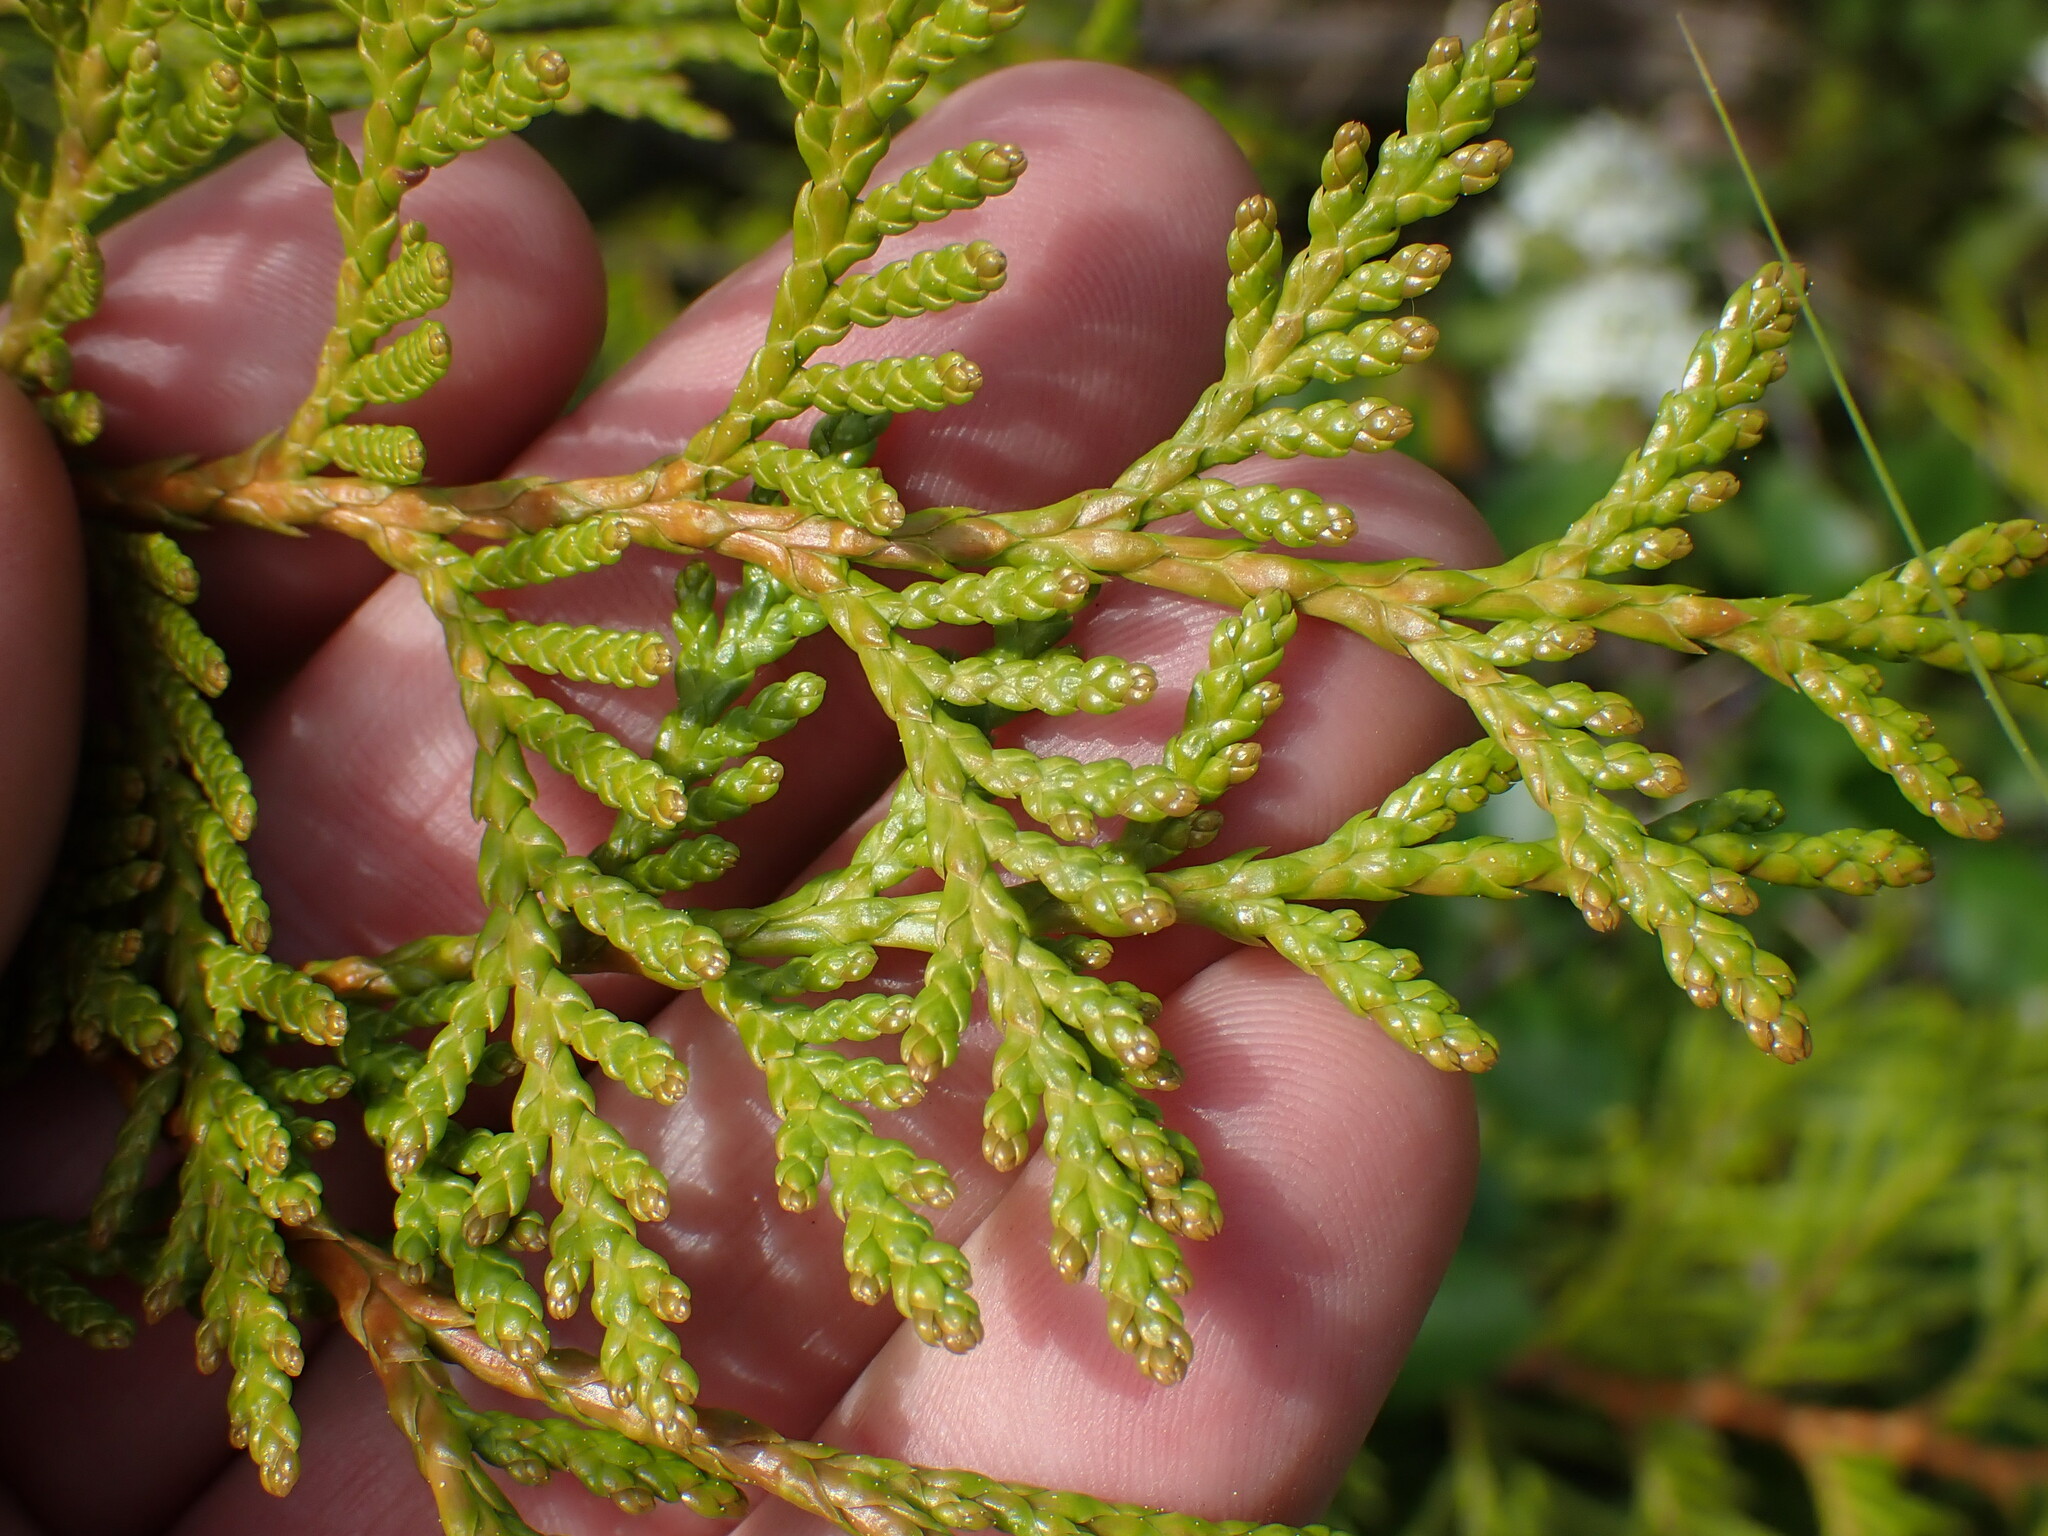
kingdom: Plantae
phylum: Tracheophyta
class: Pinopsida
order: Pinales
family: Cupressaceae
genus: Thuja
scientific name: Thuja plicata
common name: Western red-cedar
